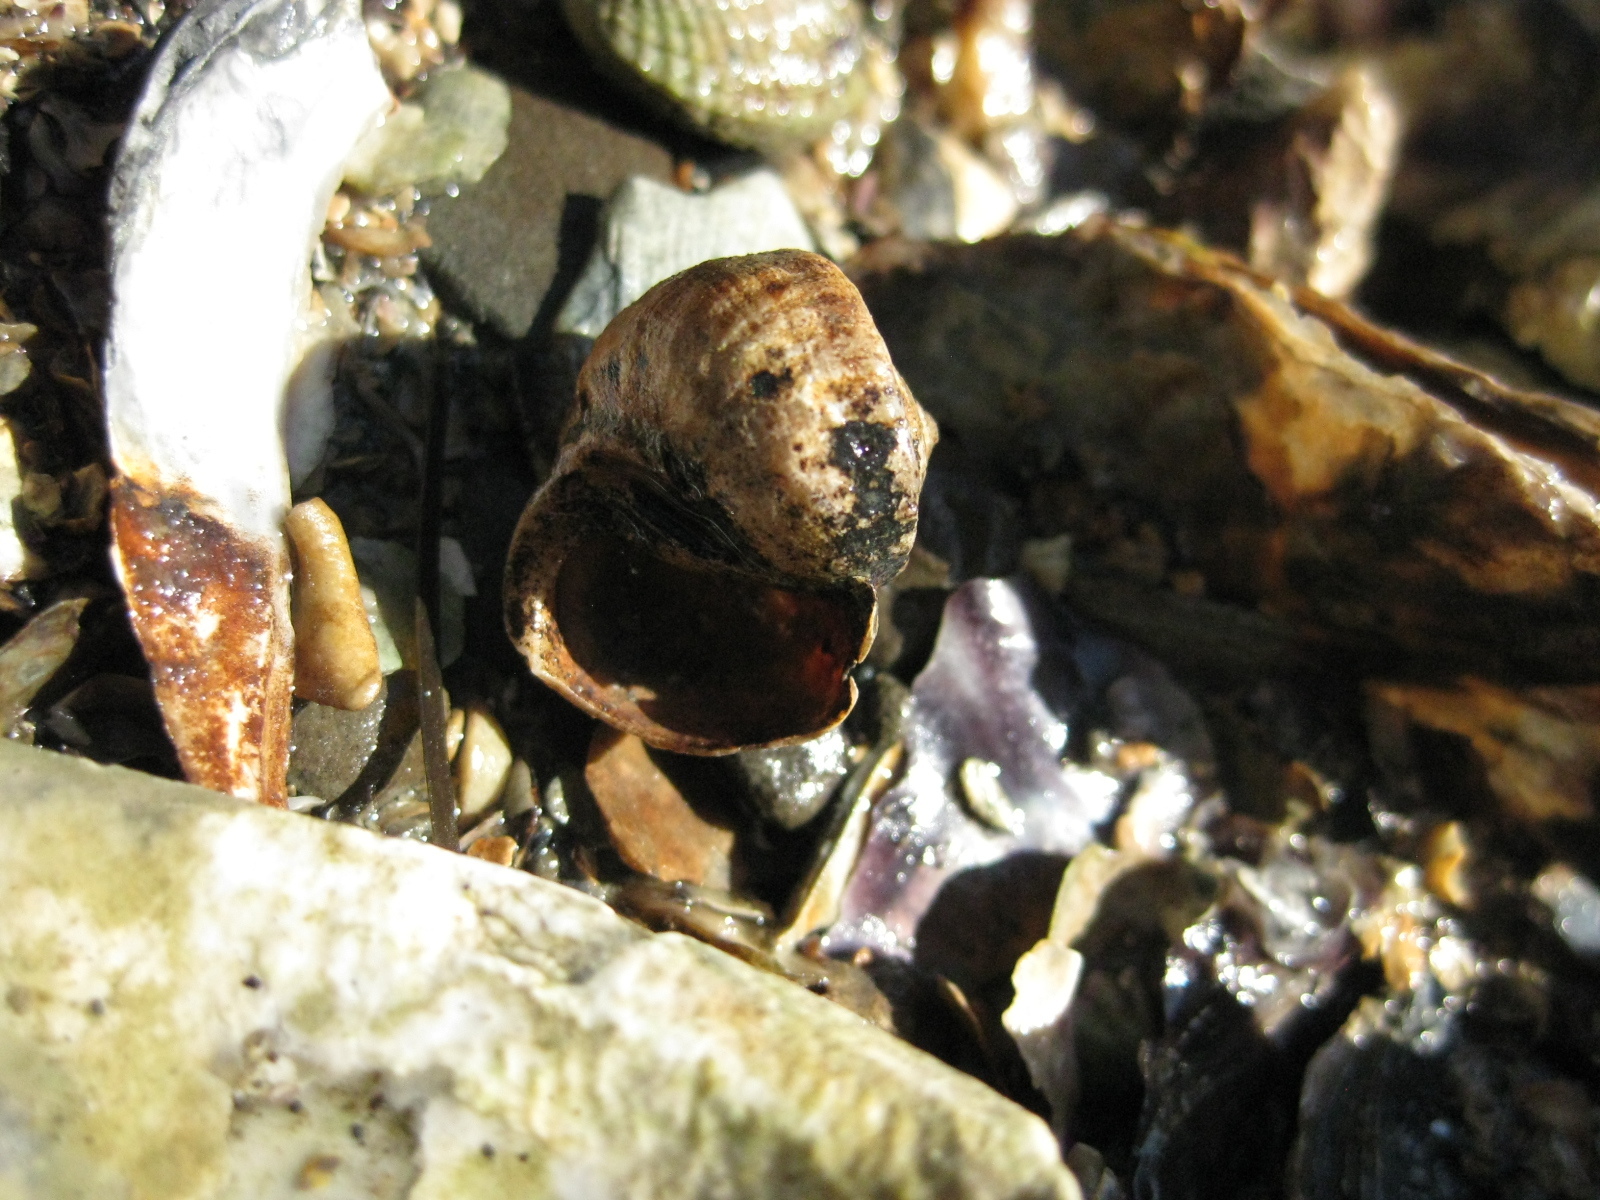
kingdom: Animalia
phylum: Mollusca
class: Gastropoda
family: Amphibolidae
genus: Amphibola
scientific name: Amphibola crenata
